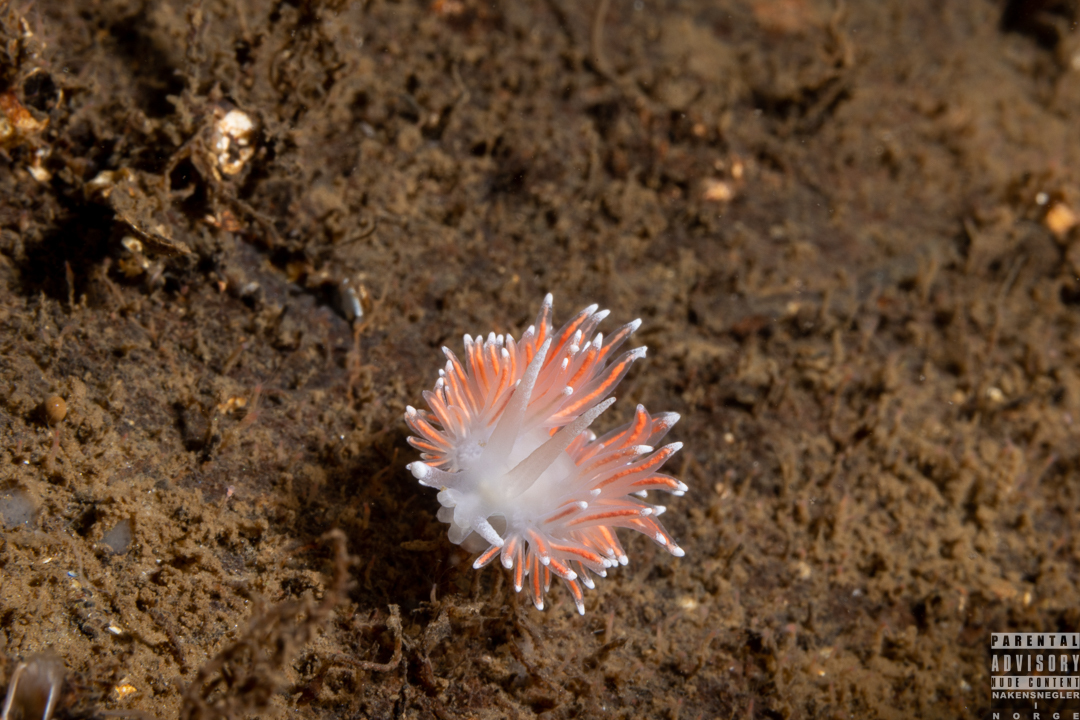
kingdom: Animalia
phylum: Mollusca
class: Gastropoda
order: Nudibranchia
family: Flabellinidae
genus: Carronella
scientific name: Carronella pellucida
